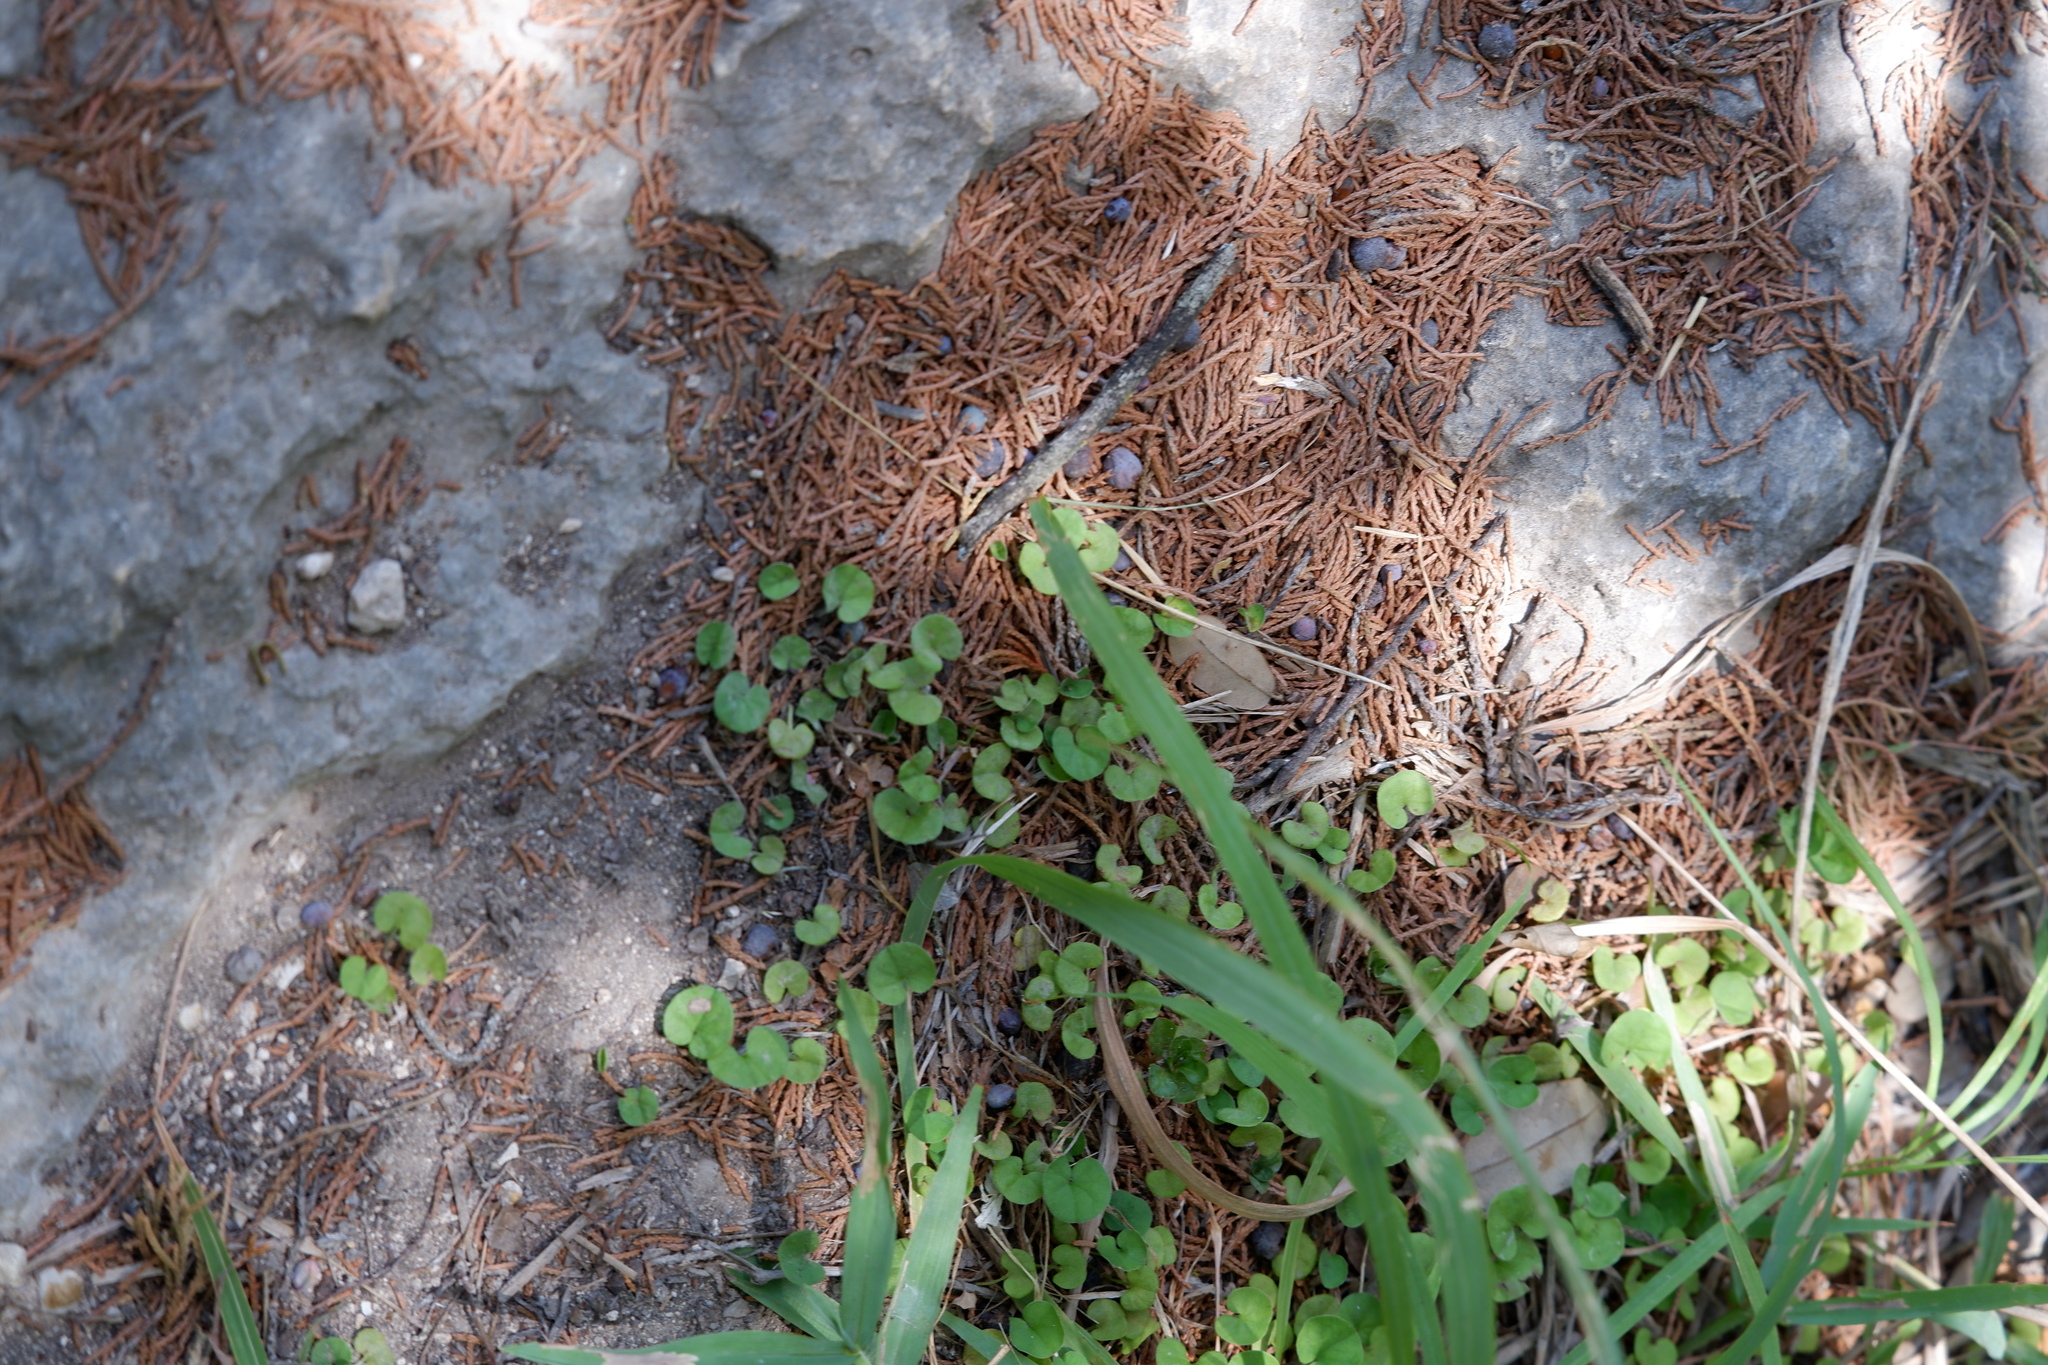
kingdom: Plantae
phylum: Tracheophyta
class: Magnoliopsida
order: Solanales
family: Convolvulaceae
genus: Dichondra
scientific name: Dichondra carolinensis
